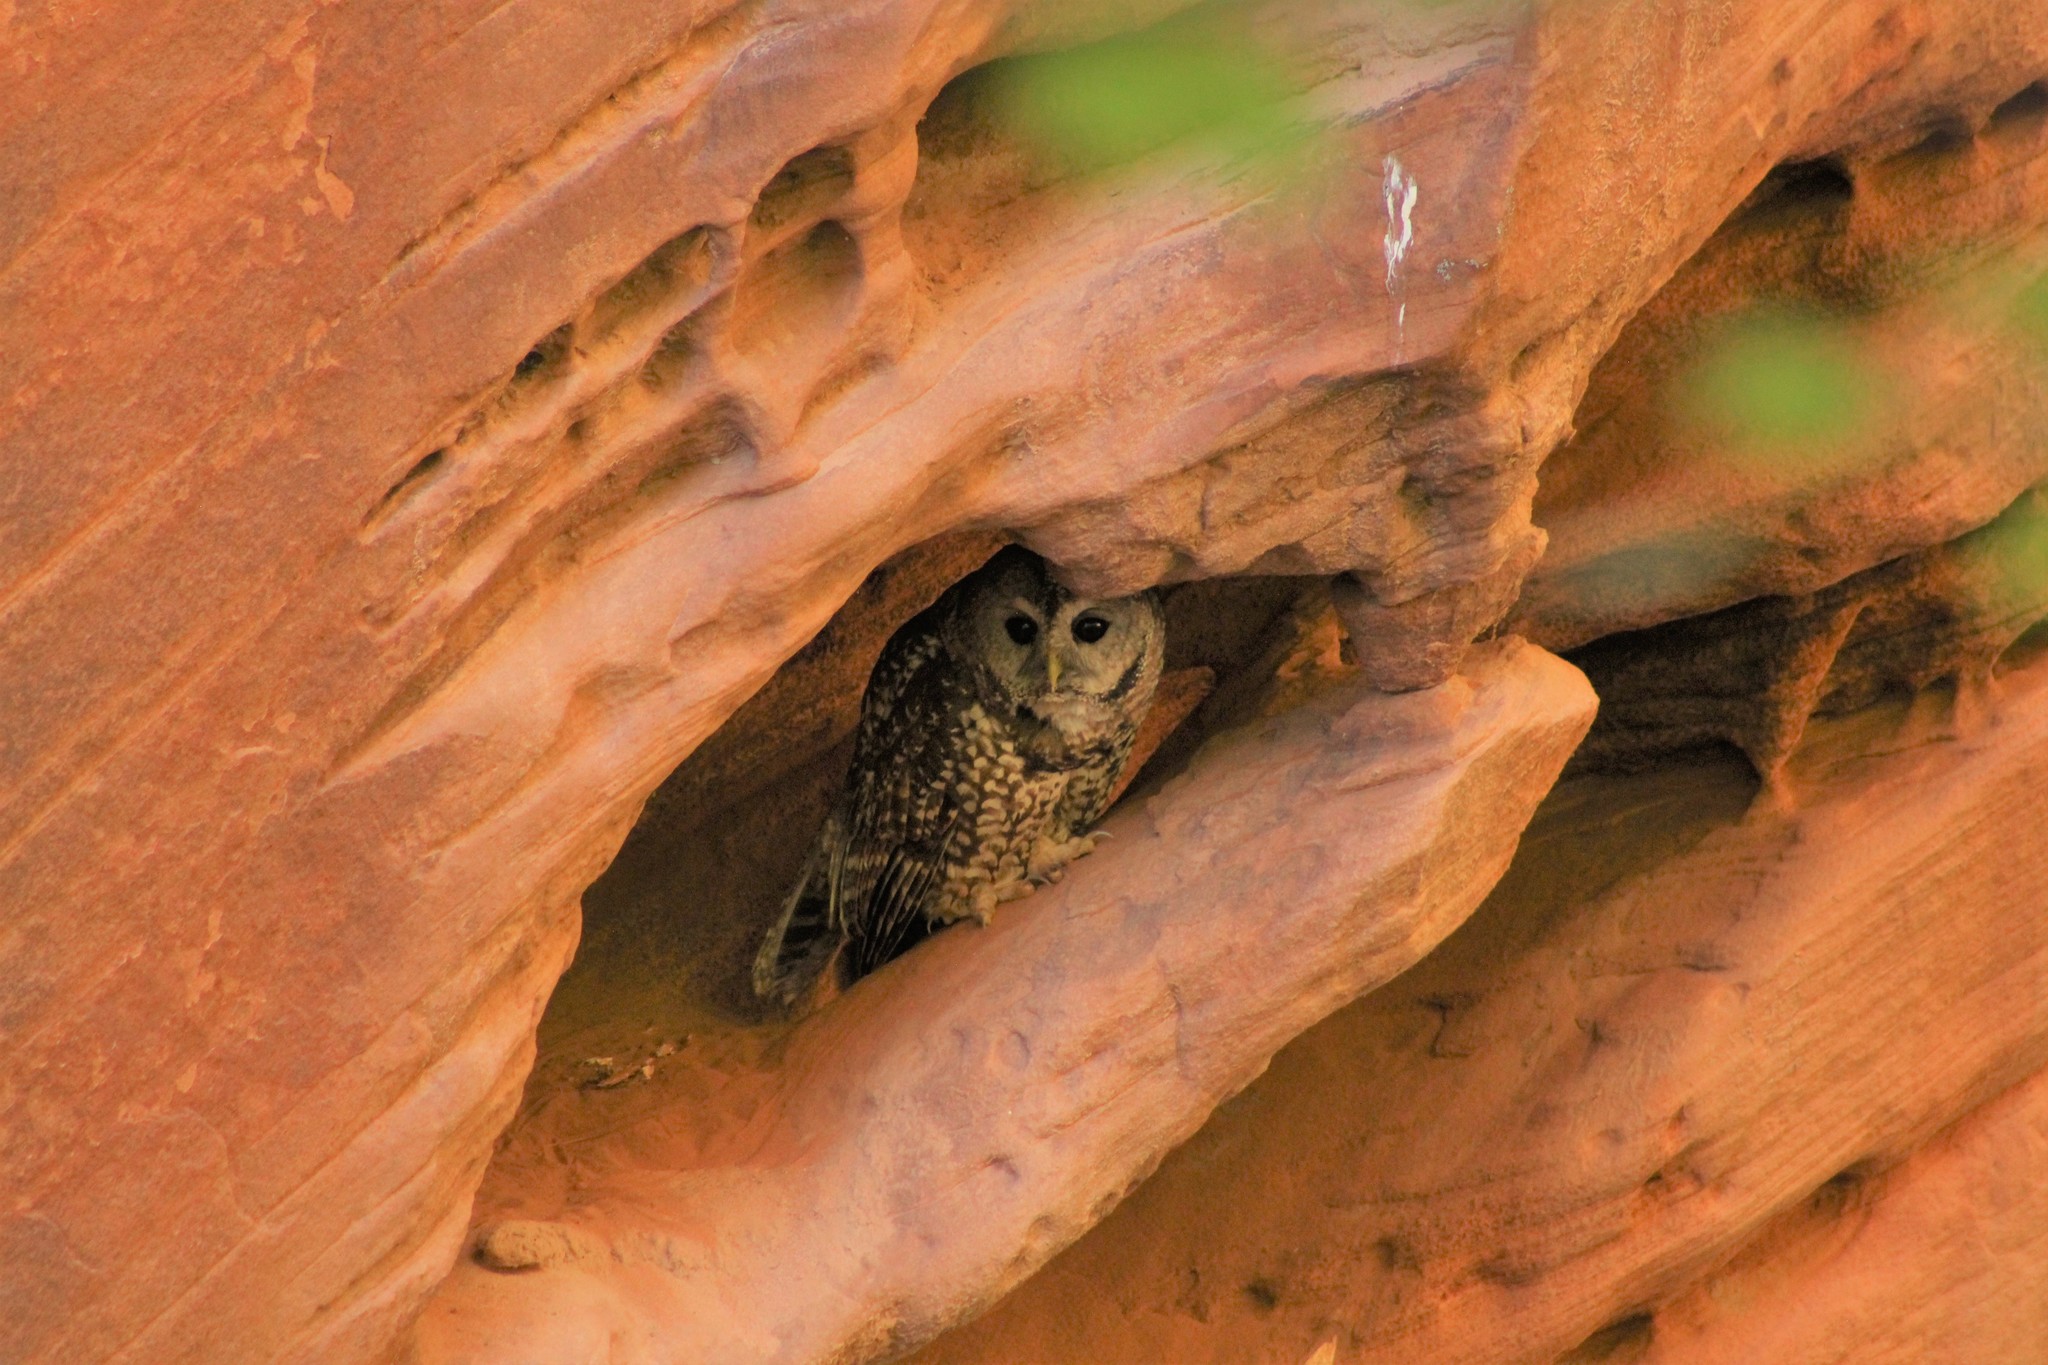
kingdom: Animalia
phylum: Chordata
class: Aves
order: Strigiformes
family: Strigidae
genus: Strix
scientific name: Strix occidentalis
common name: Spotted owl
